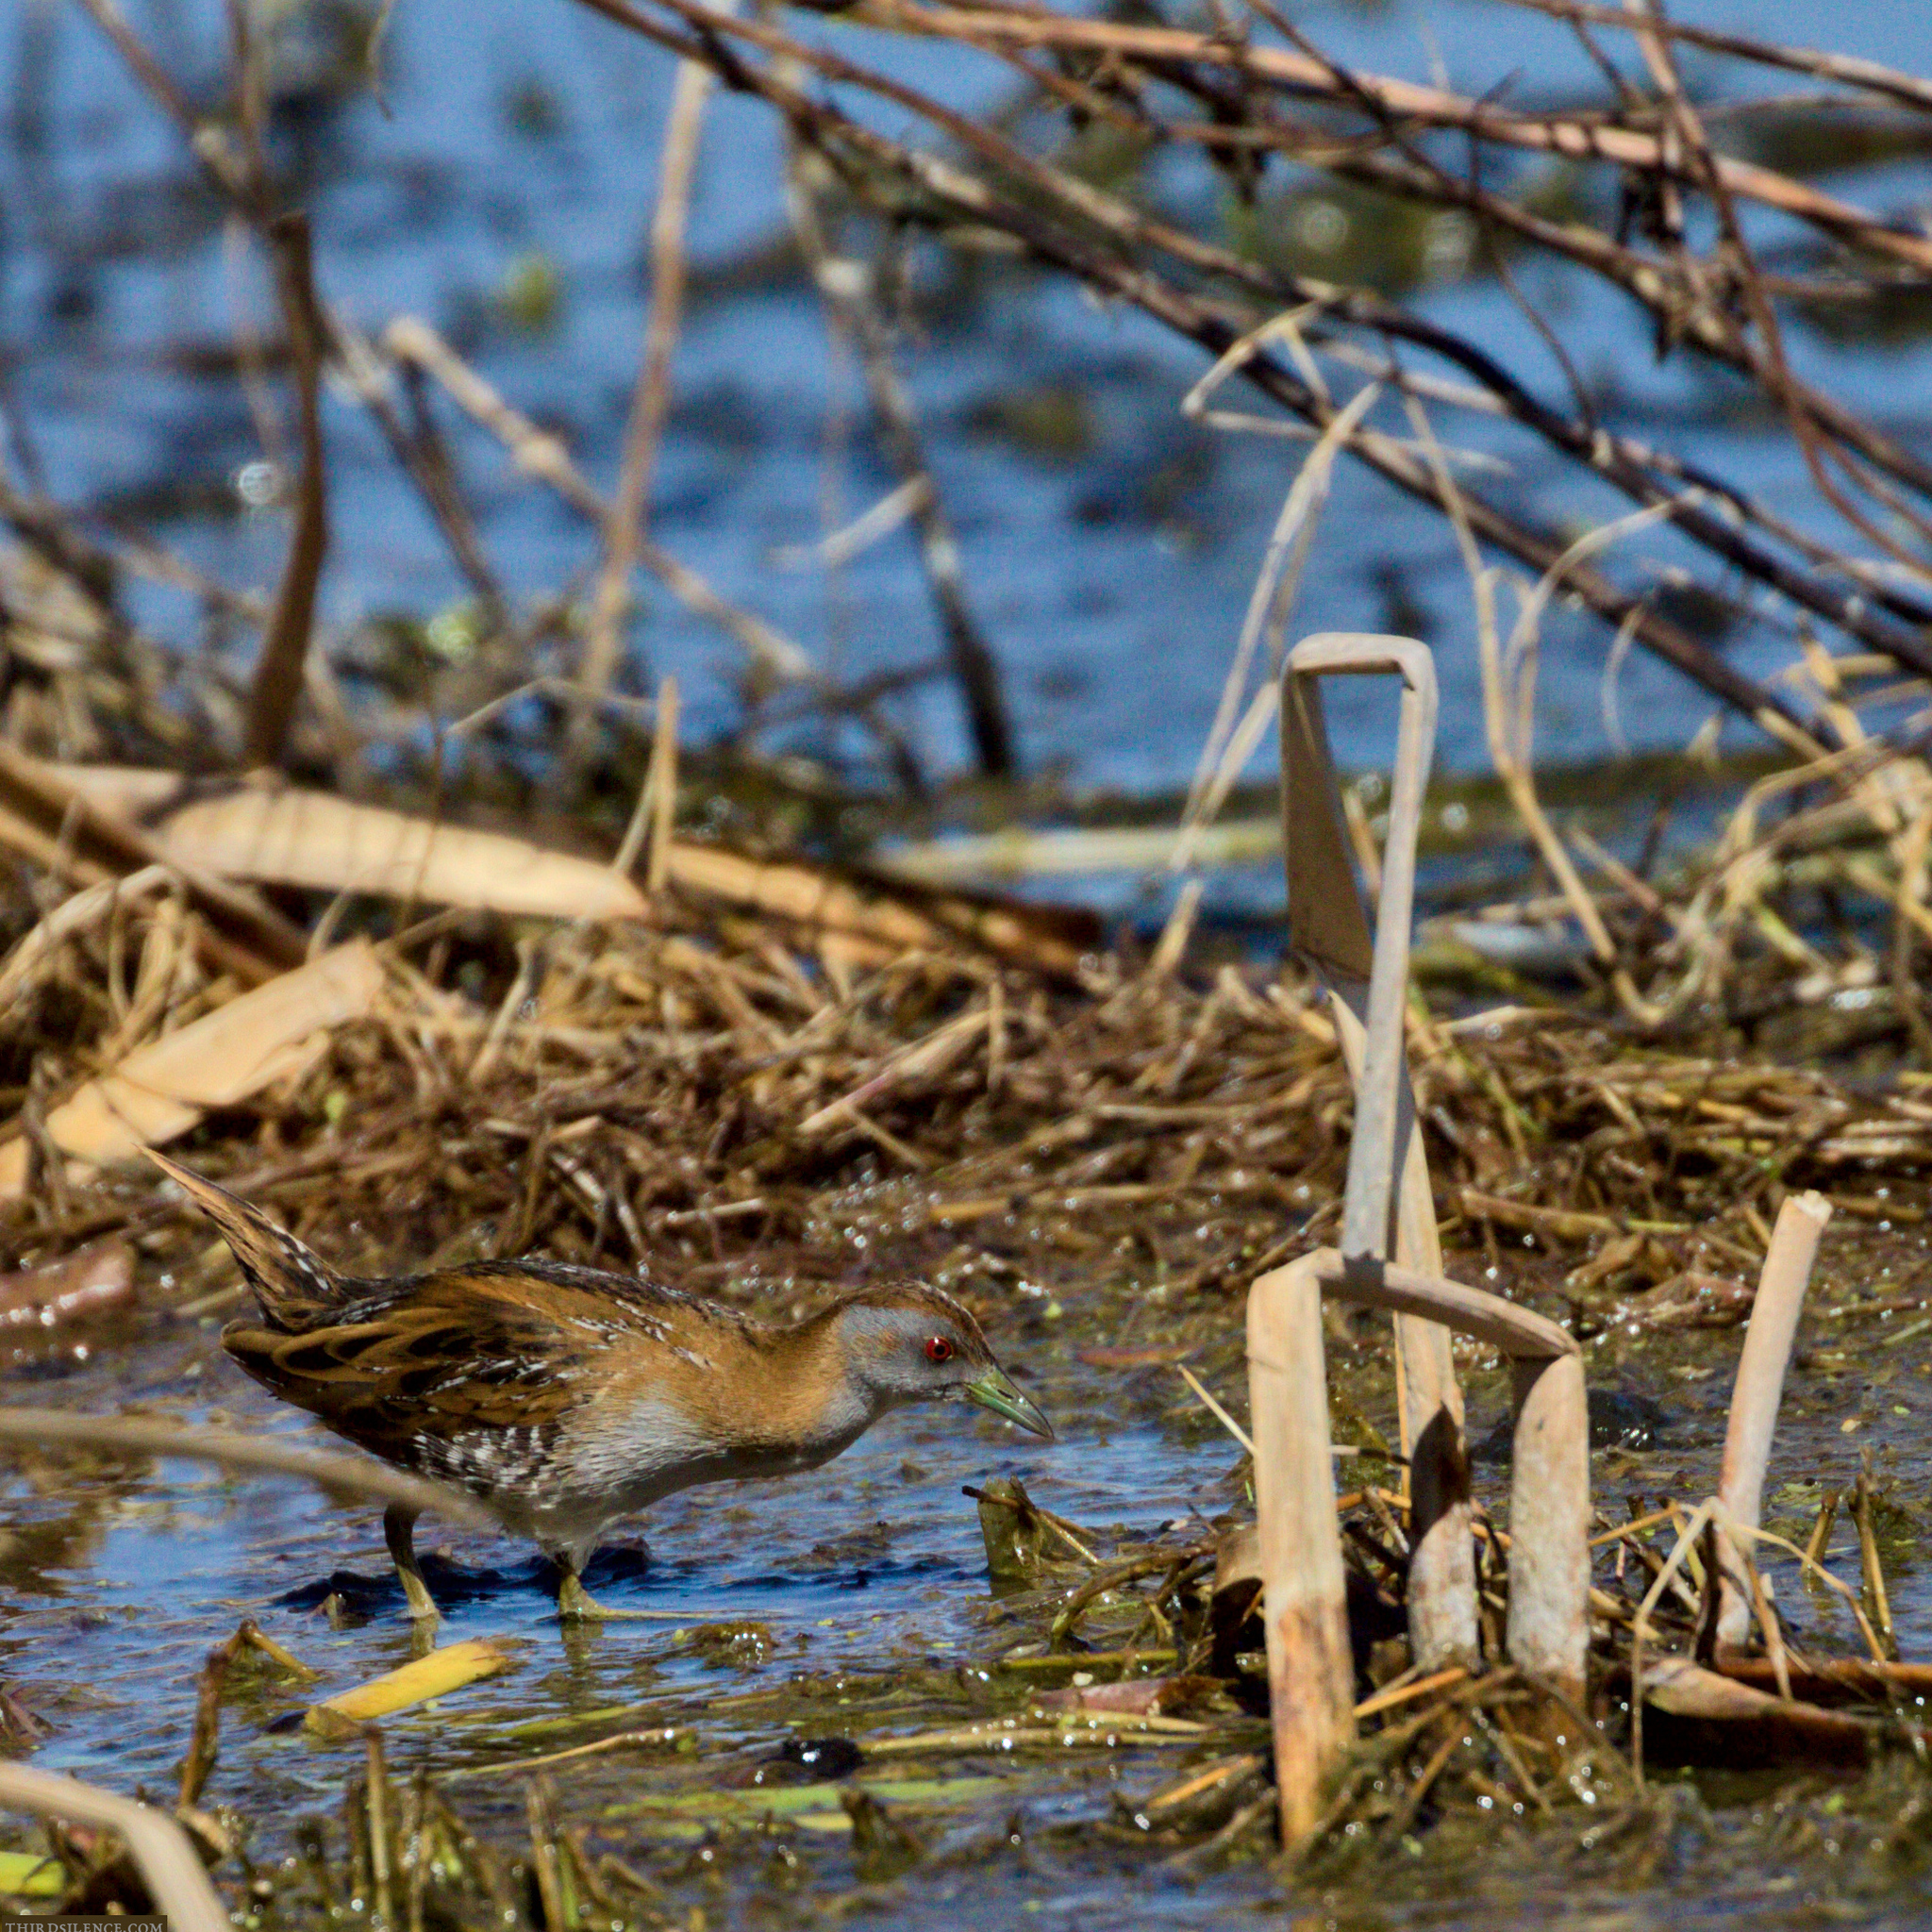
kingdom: Animalia
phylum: Chordata
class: Aves
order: Gruiformes
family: Rallidae
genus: Porzana
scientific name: Porzana pusilla
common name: Baillon's crake
